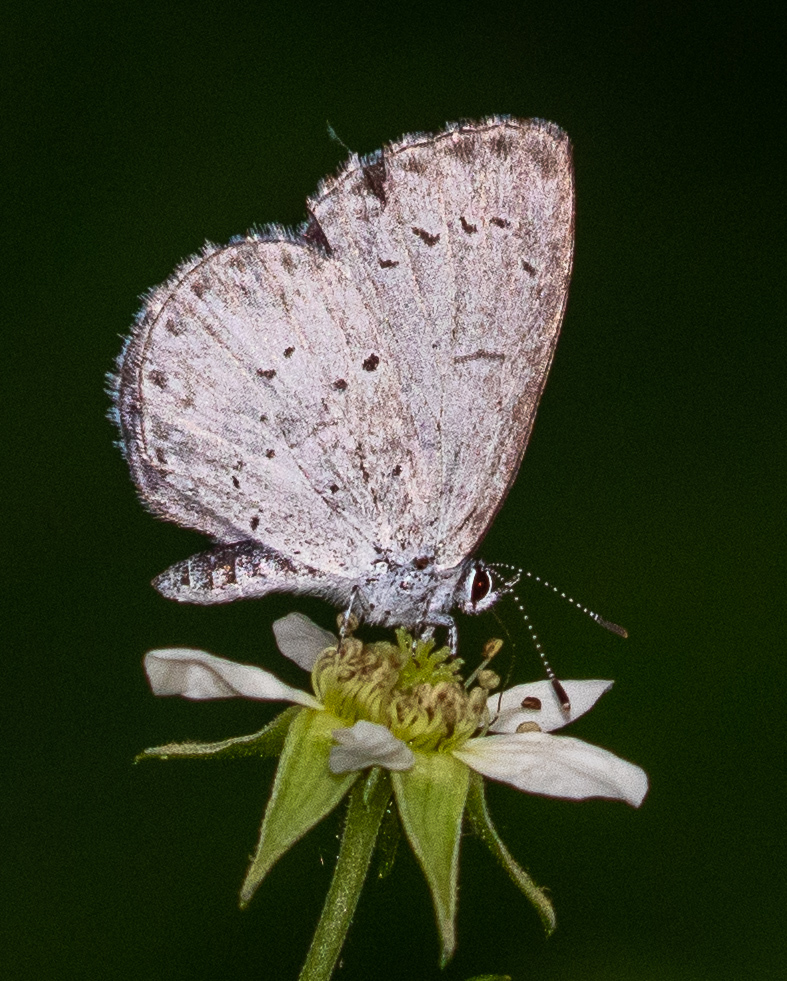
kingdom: Animalia
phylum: Arthropoda
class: Insecta
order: Lepidoptera
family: Lycaenidae
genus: Celastrina
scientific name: Celastrina
